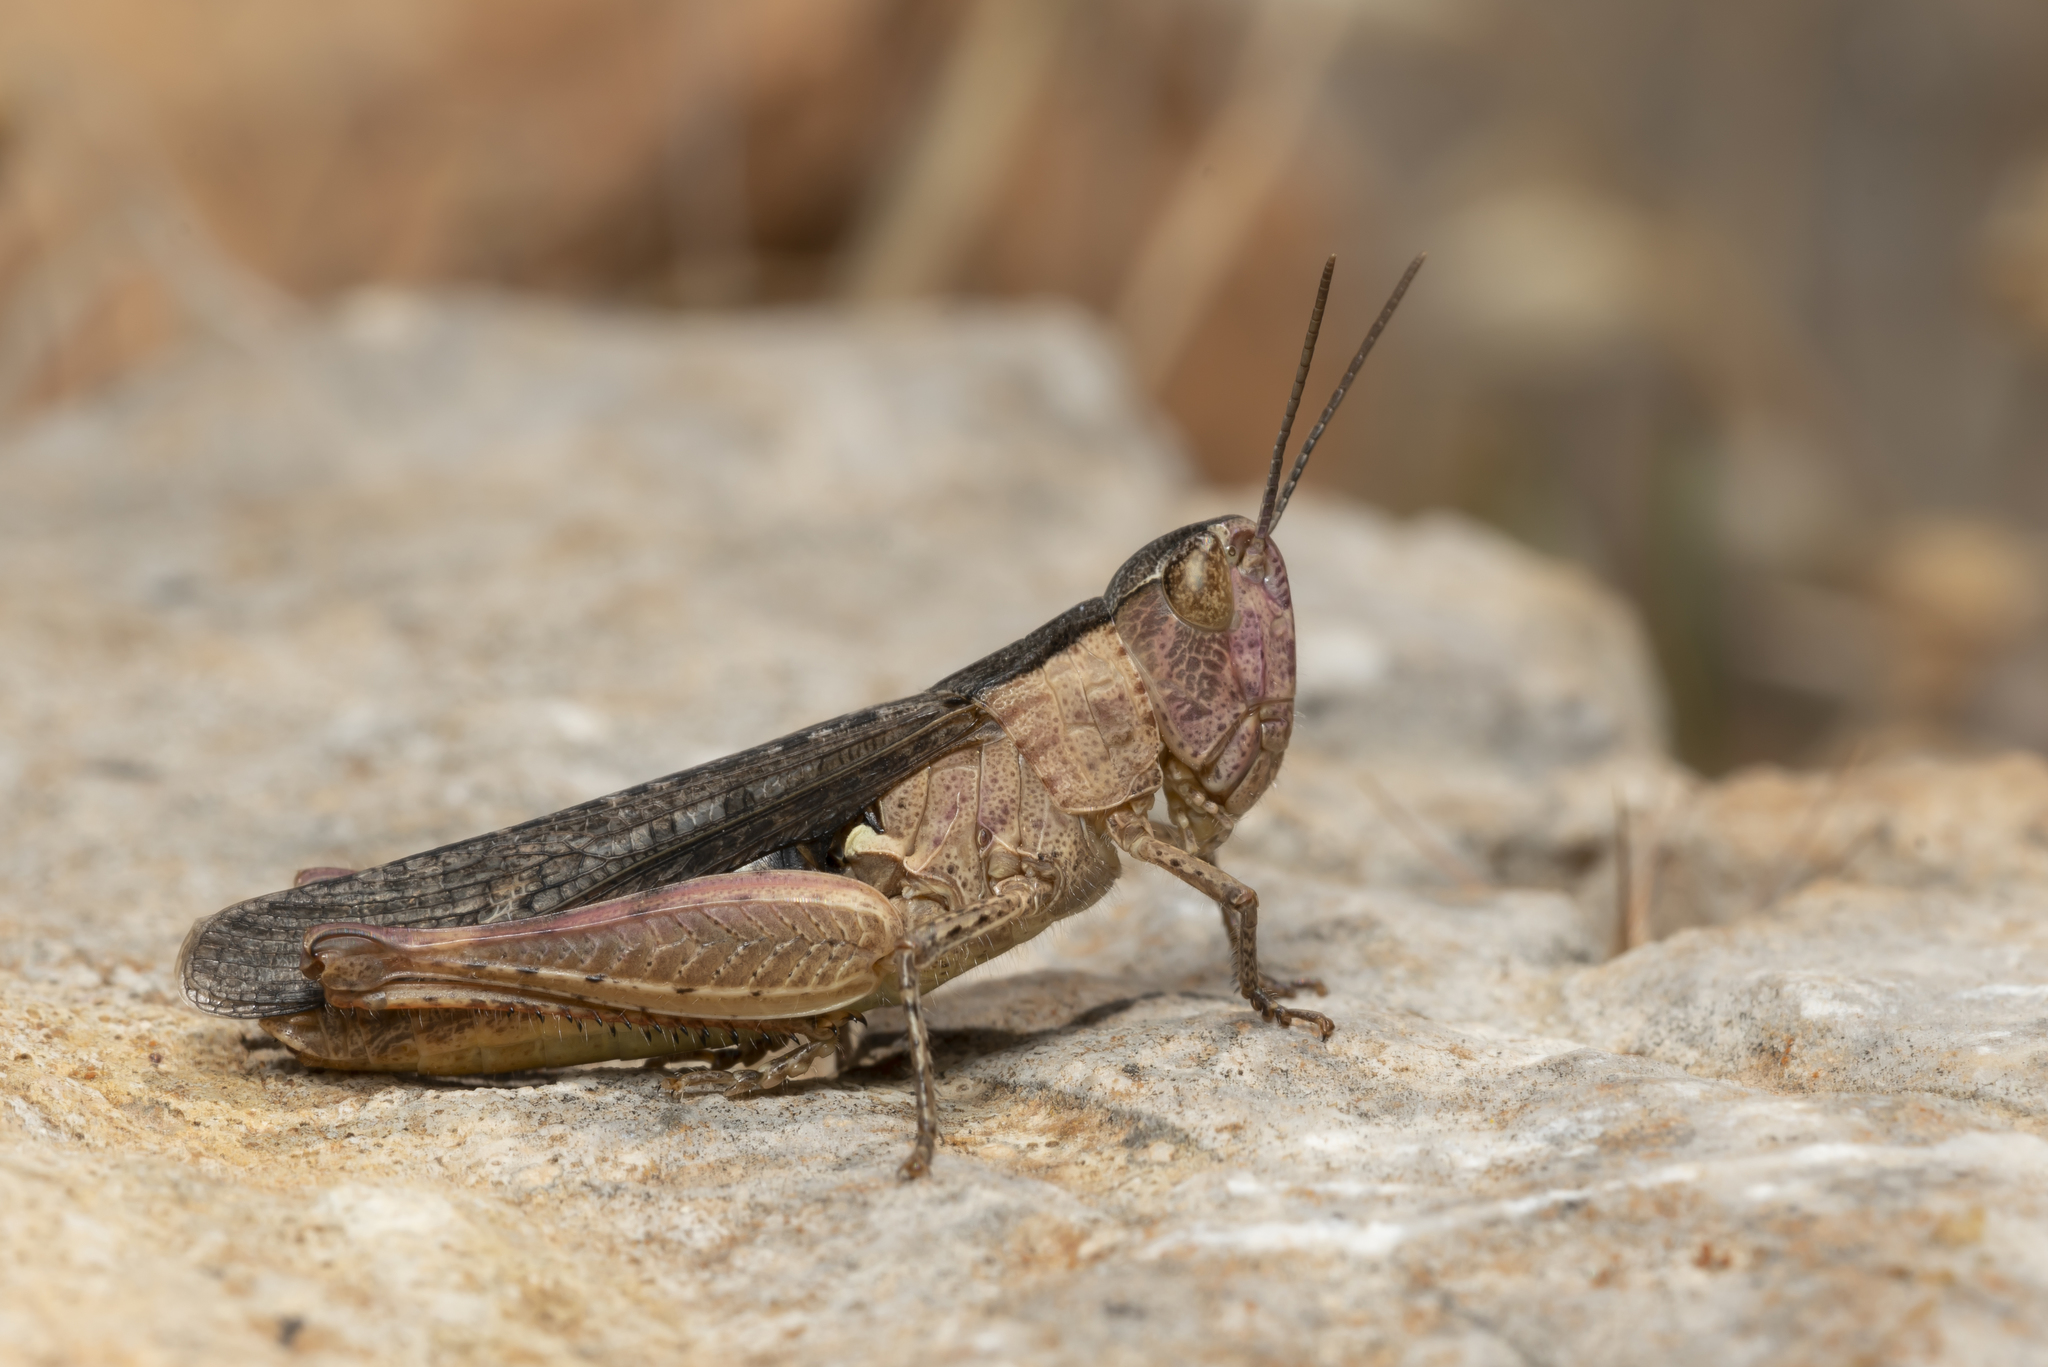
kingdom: Animalia
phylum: Arthropoda
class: Insecta
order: Orthoptera
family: Acrididae
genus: Chorthippus
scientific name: Chorthippus vagans
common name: Heath grasshopper
